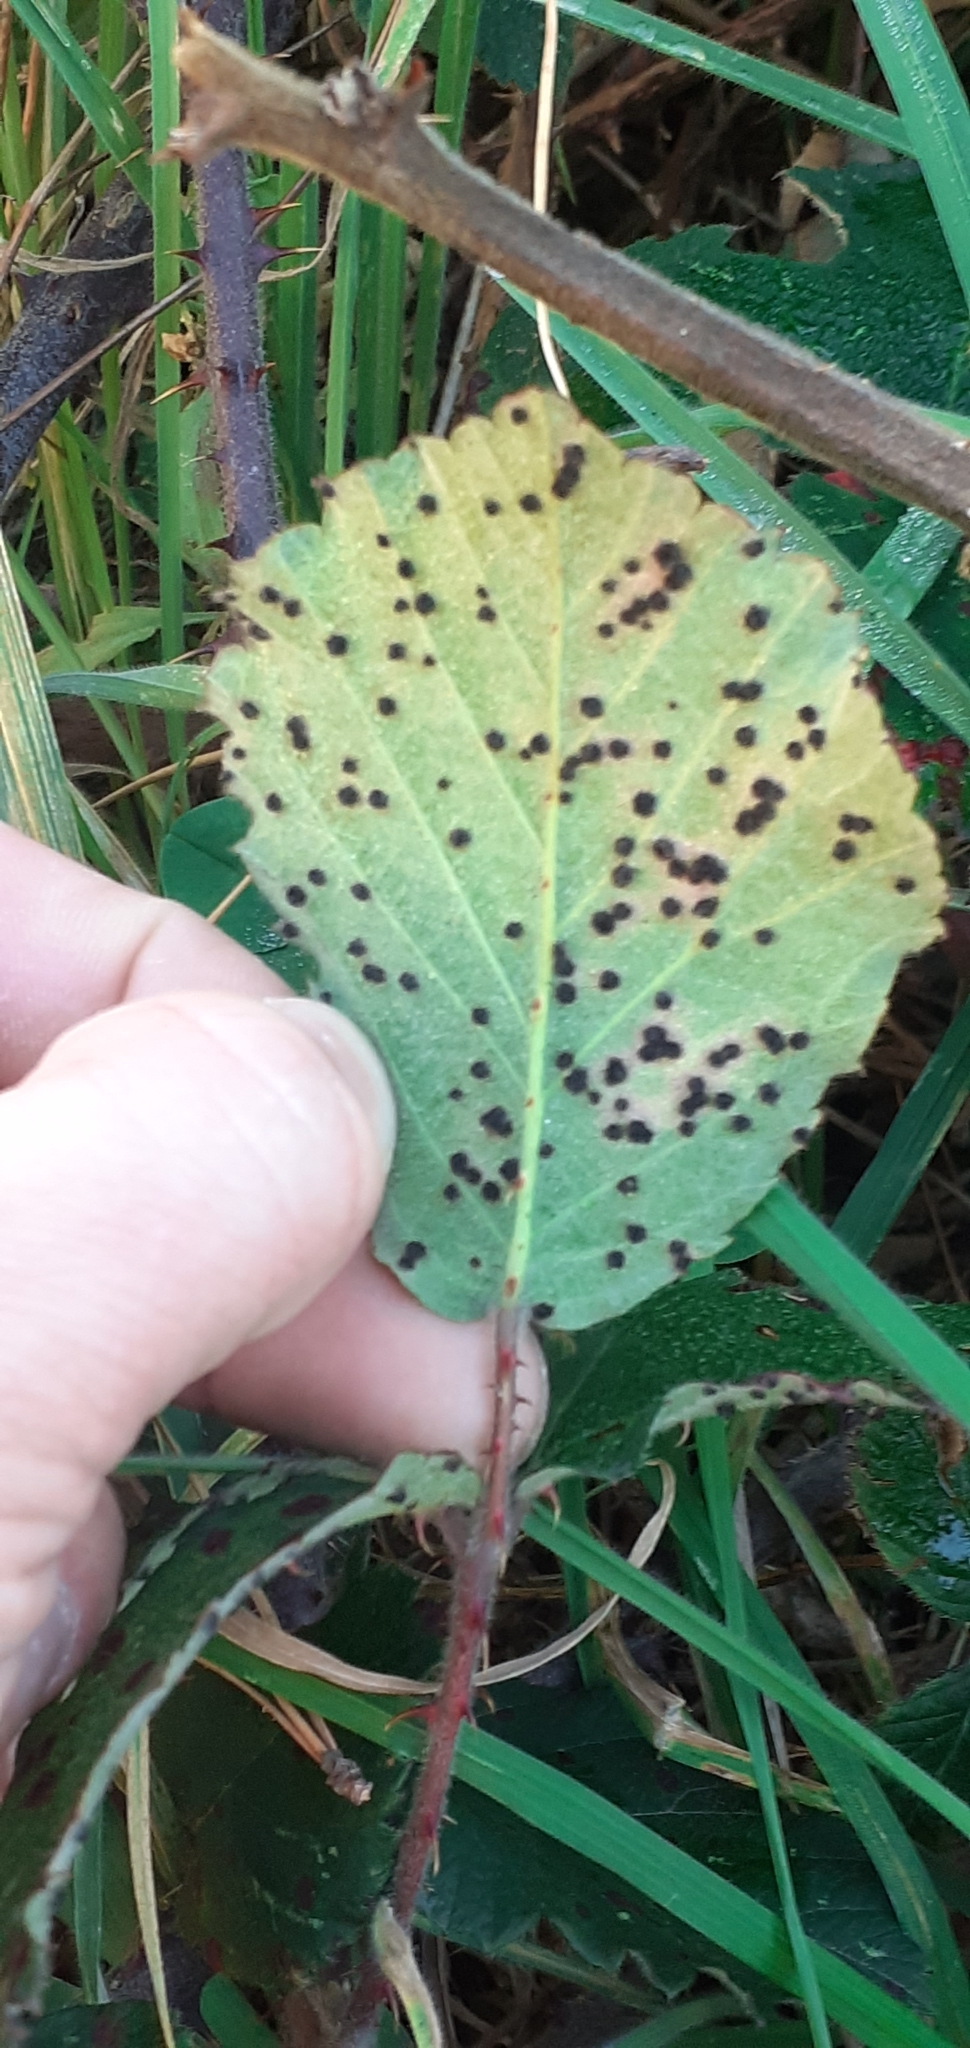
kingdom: Fungi
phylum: Basidiomycota
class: Pucciniomycetes
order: Pucciniales
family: Phragmidiaceae
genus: Phragmidium
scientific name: Phragmidium violaceum
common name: Violet bramble rust
